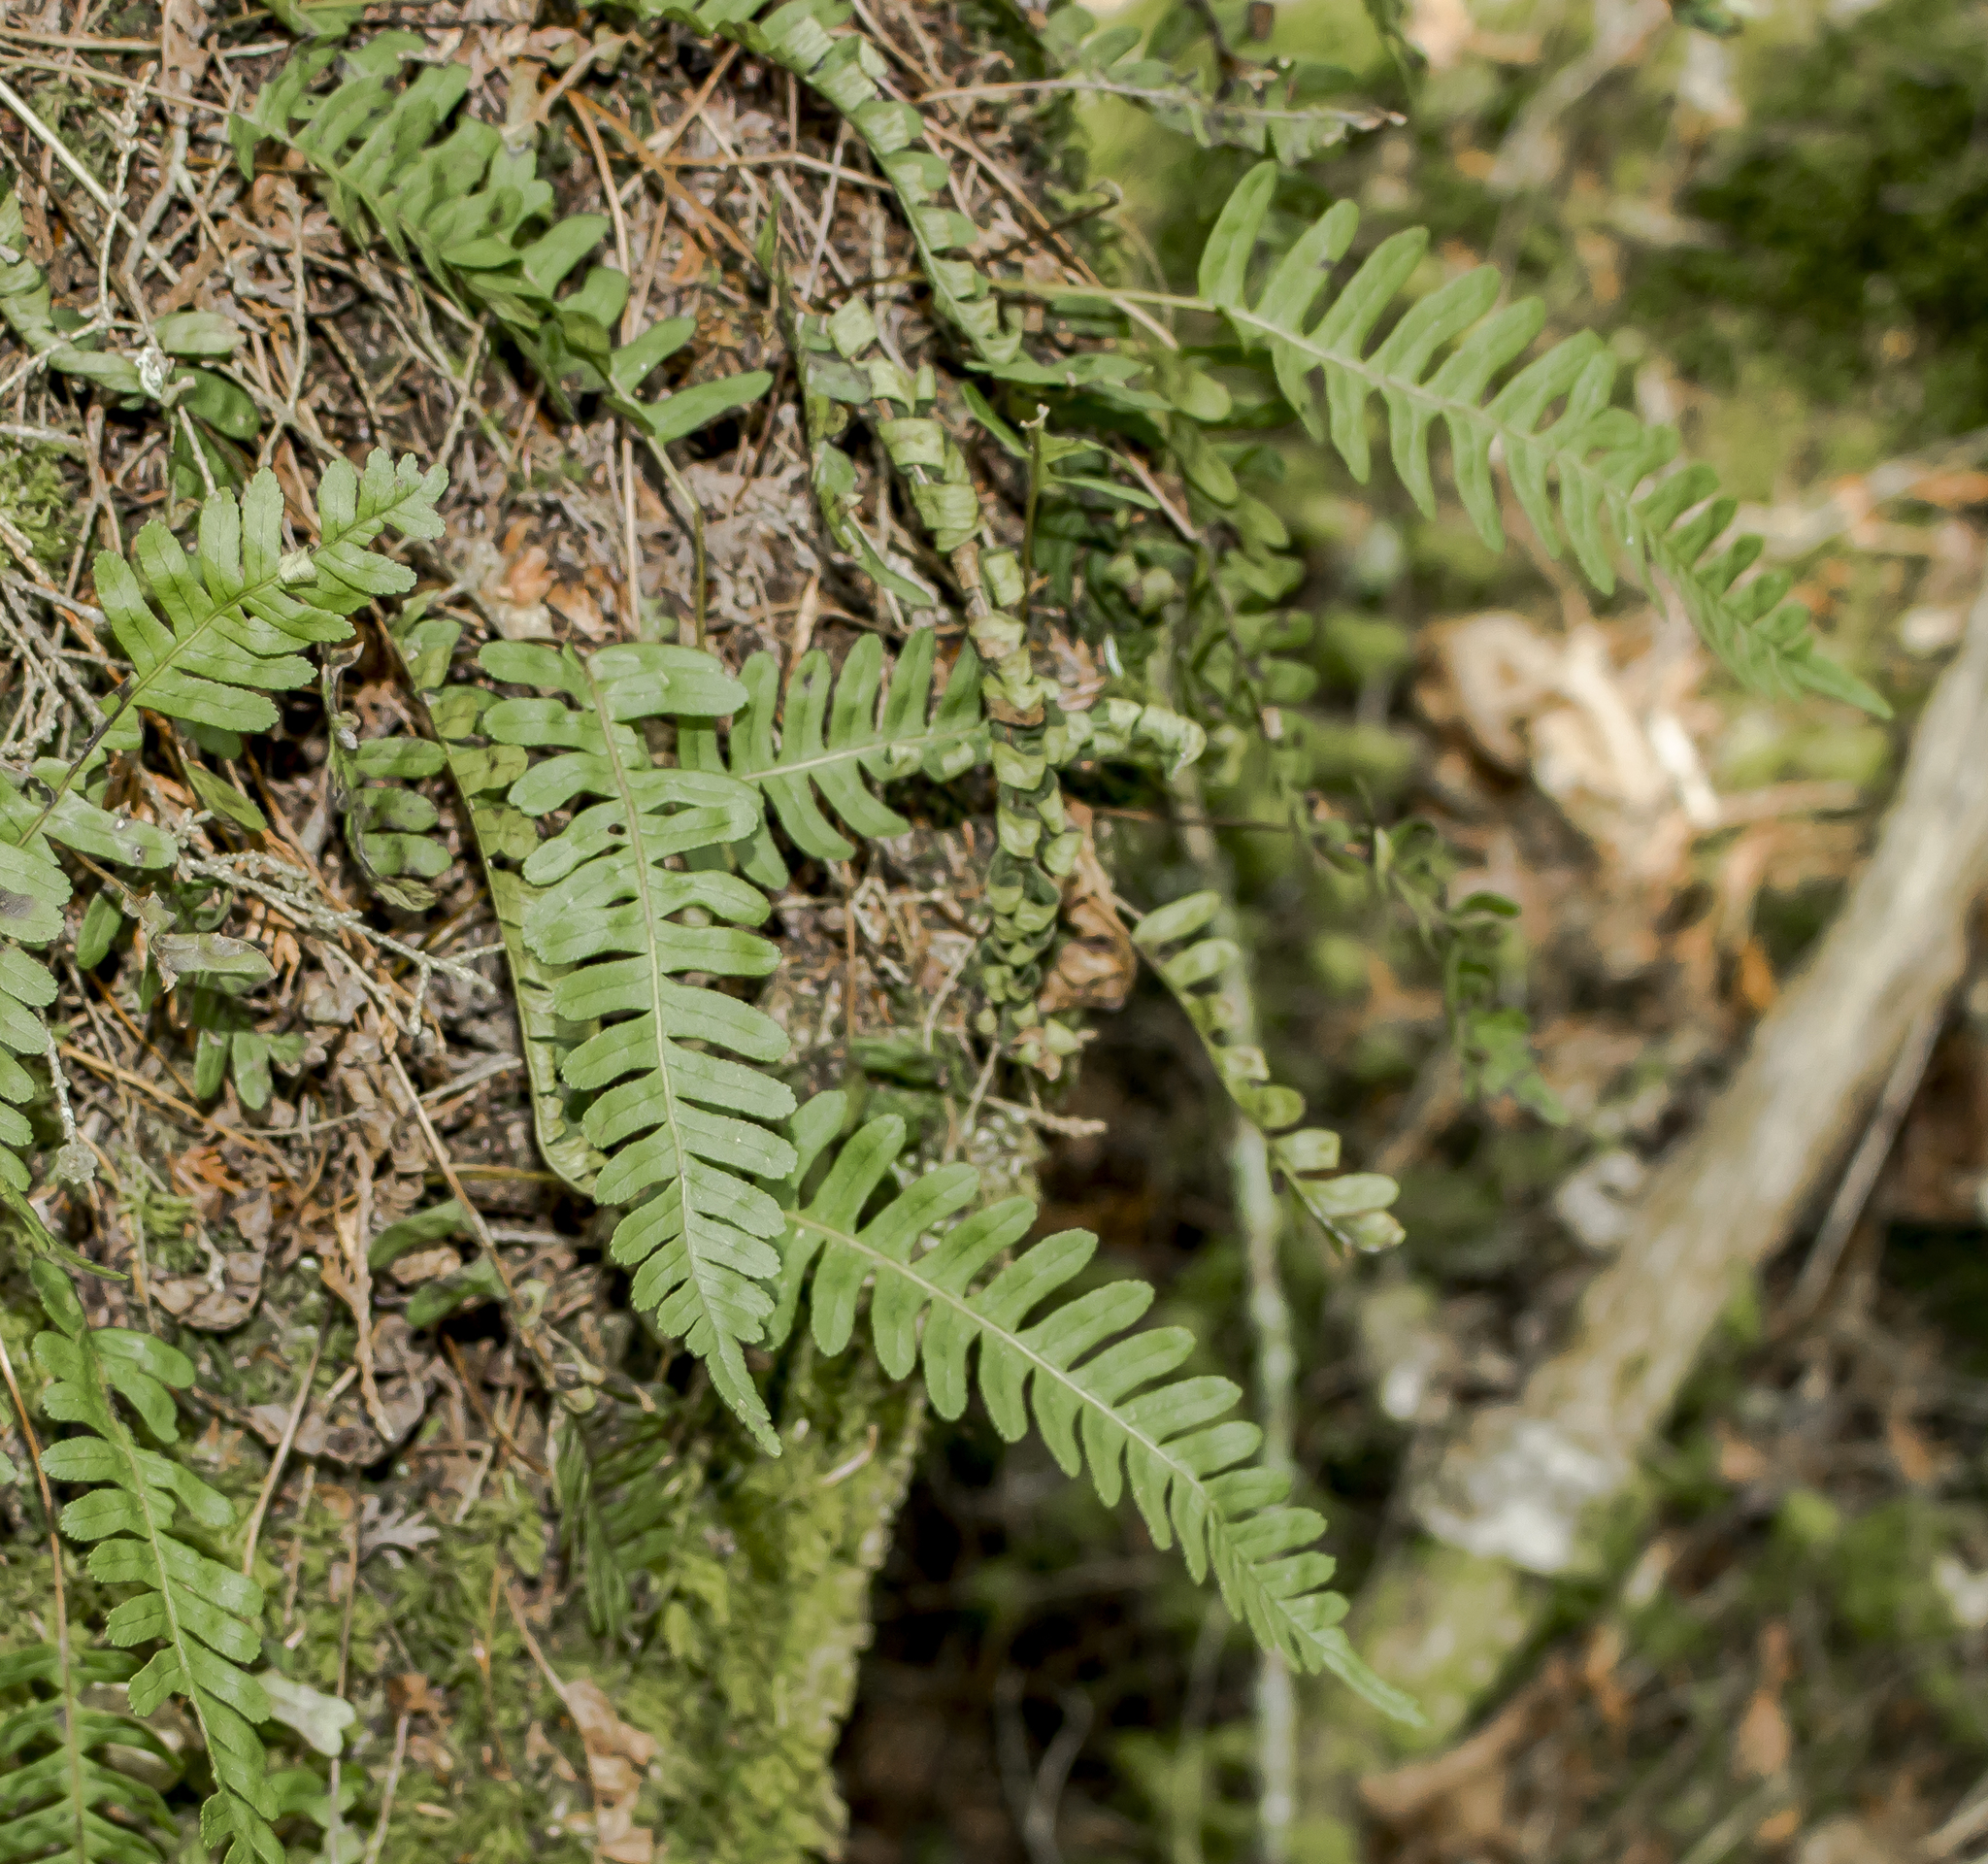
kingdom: Plantae
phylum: Tracheophyta
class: Polypodiopsida
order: Polypodiales
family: Polypodiaceae
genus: Polypodium
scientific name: Polypodium virginianum
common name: American wall fern
